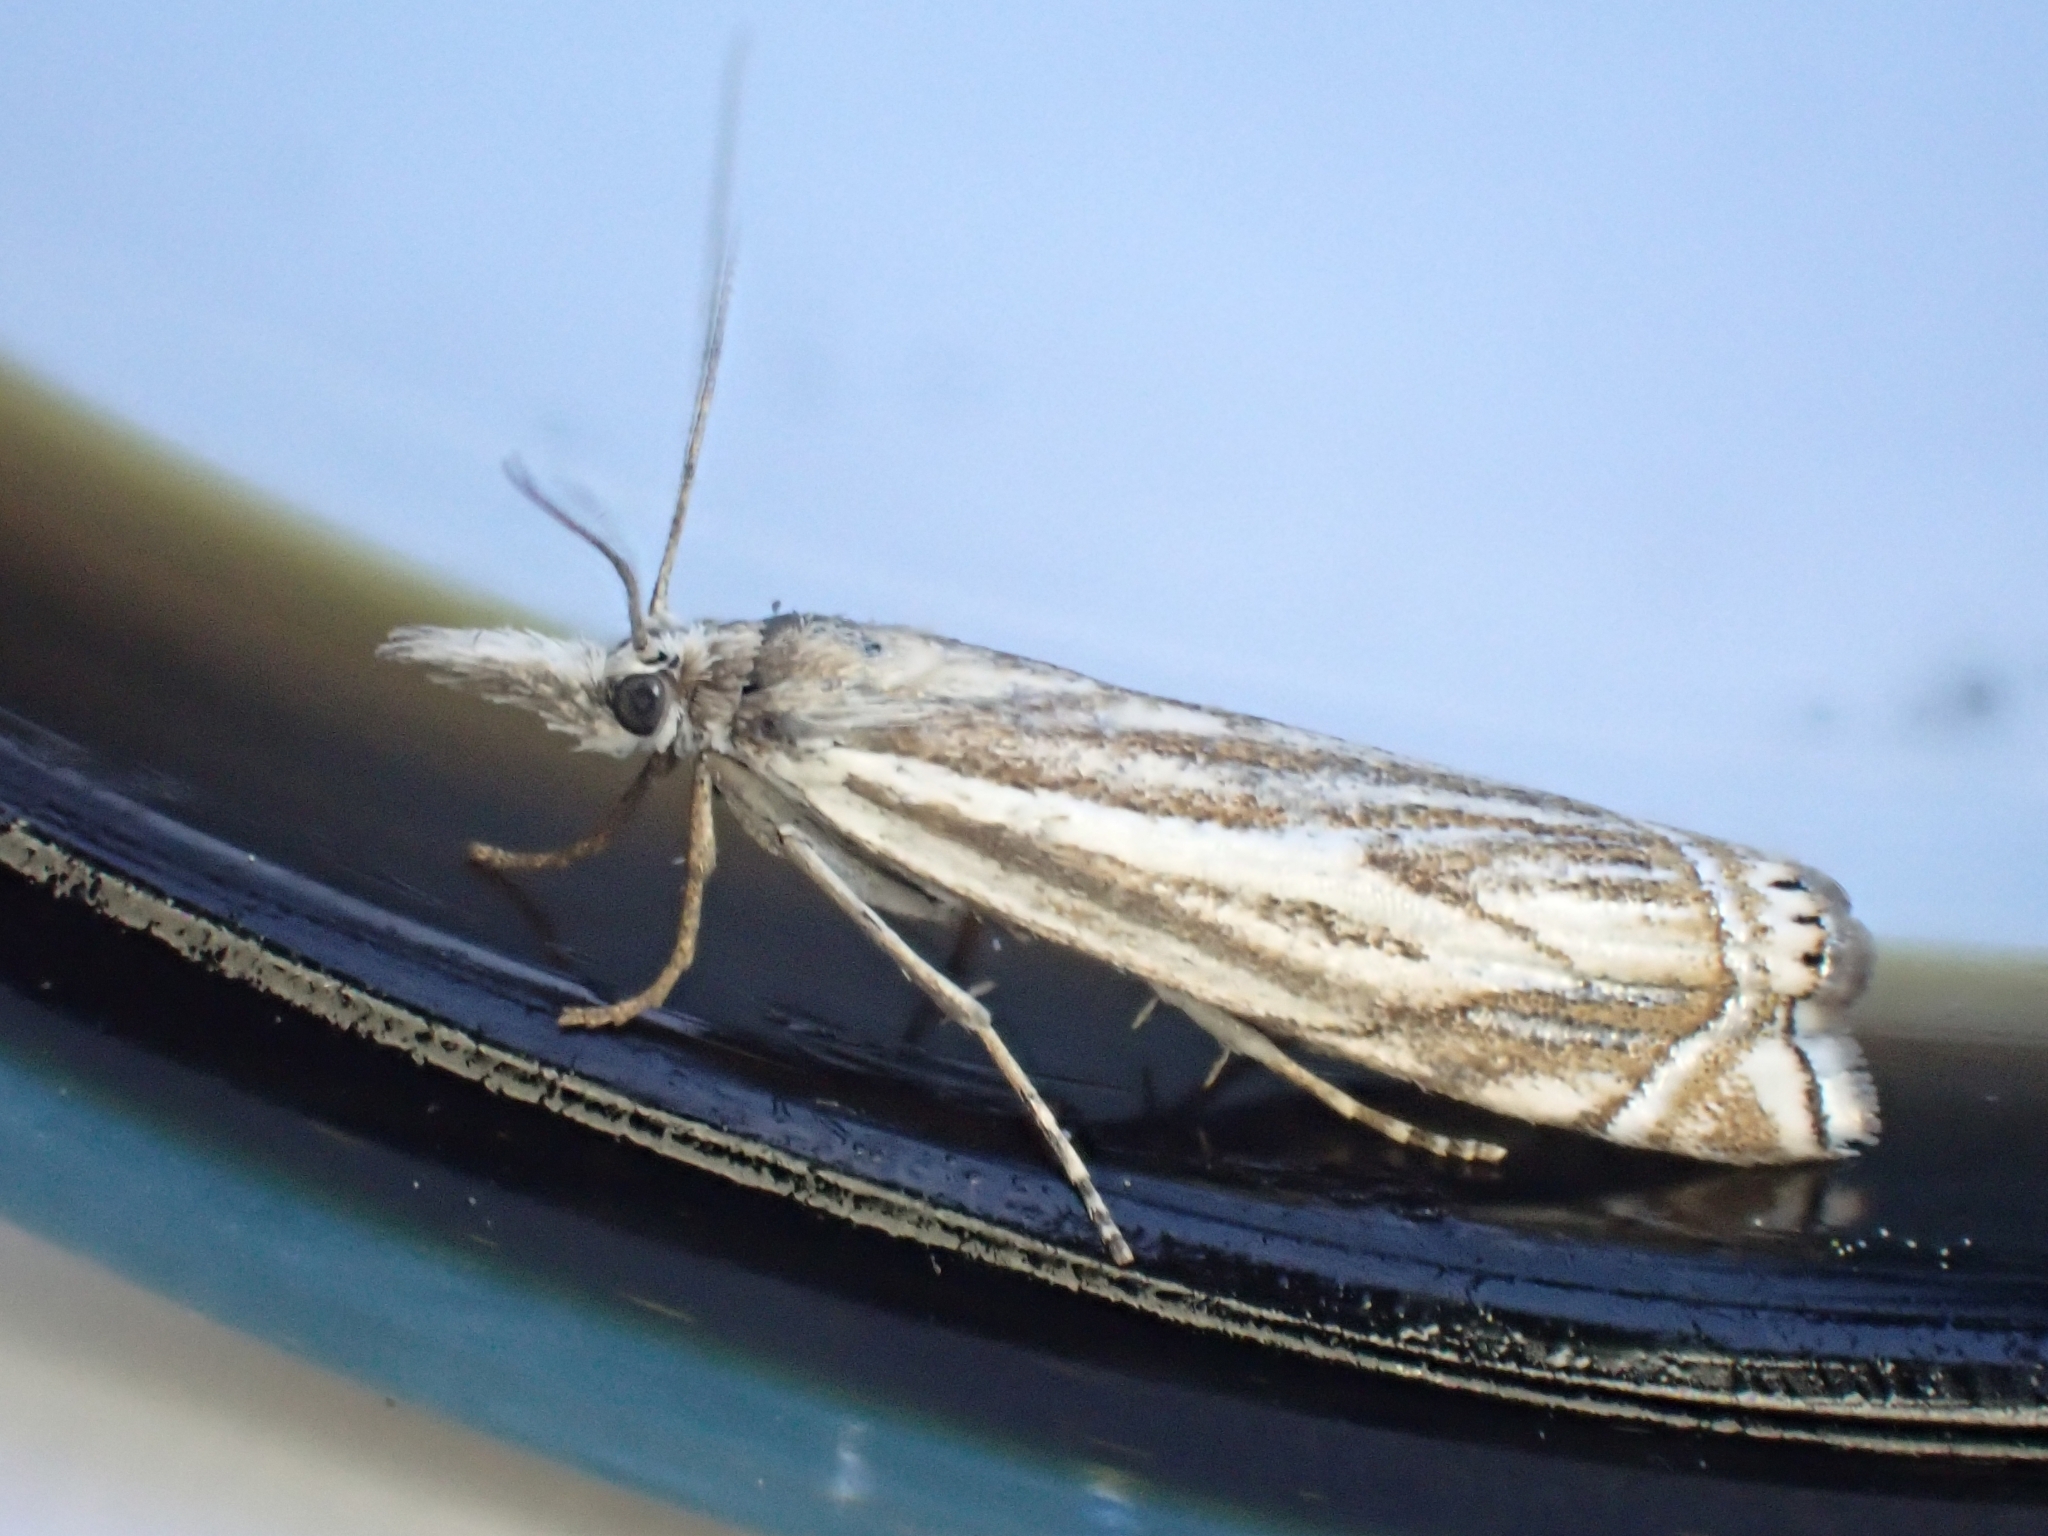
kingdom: Animalia
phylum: Arthropoda
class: Insecta
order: Lepidoptera
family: Crambidae
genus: Crambus
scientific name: Crambus nemorella
